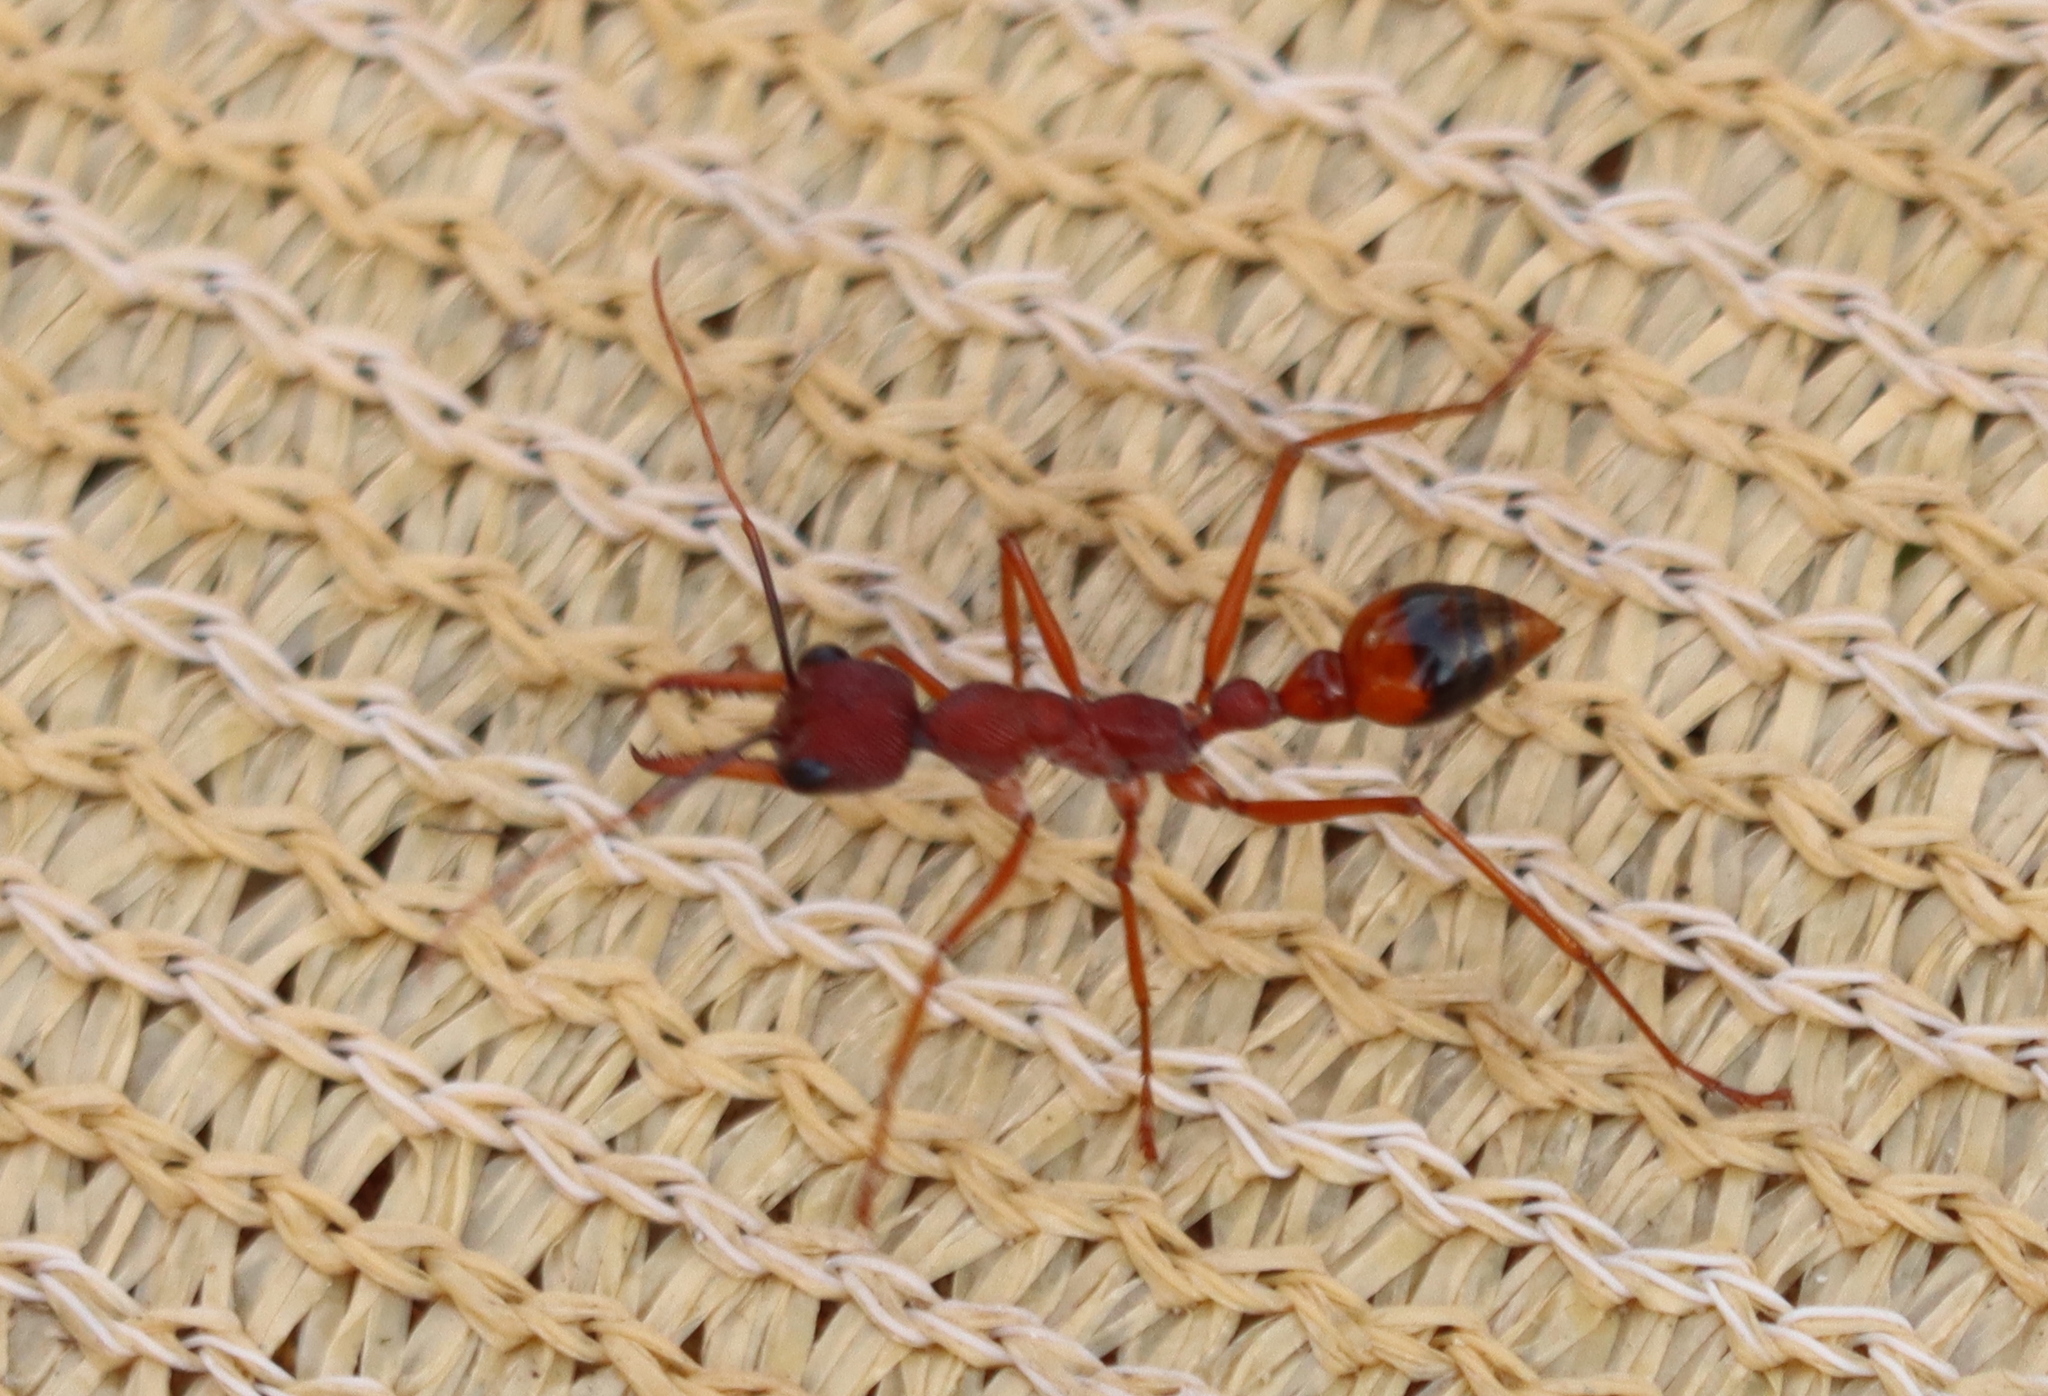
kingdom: Animalia
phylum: Arthropoda
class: Insecta
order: Hymenoptera
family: Formicidae
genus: Myrmecia
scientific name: Myrmecia nigriscapa
